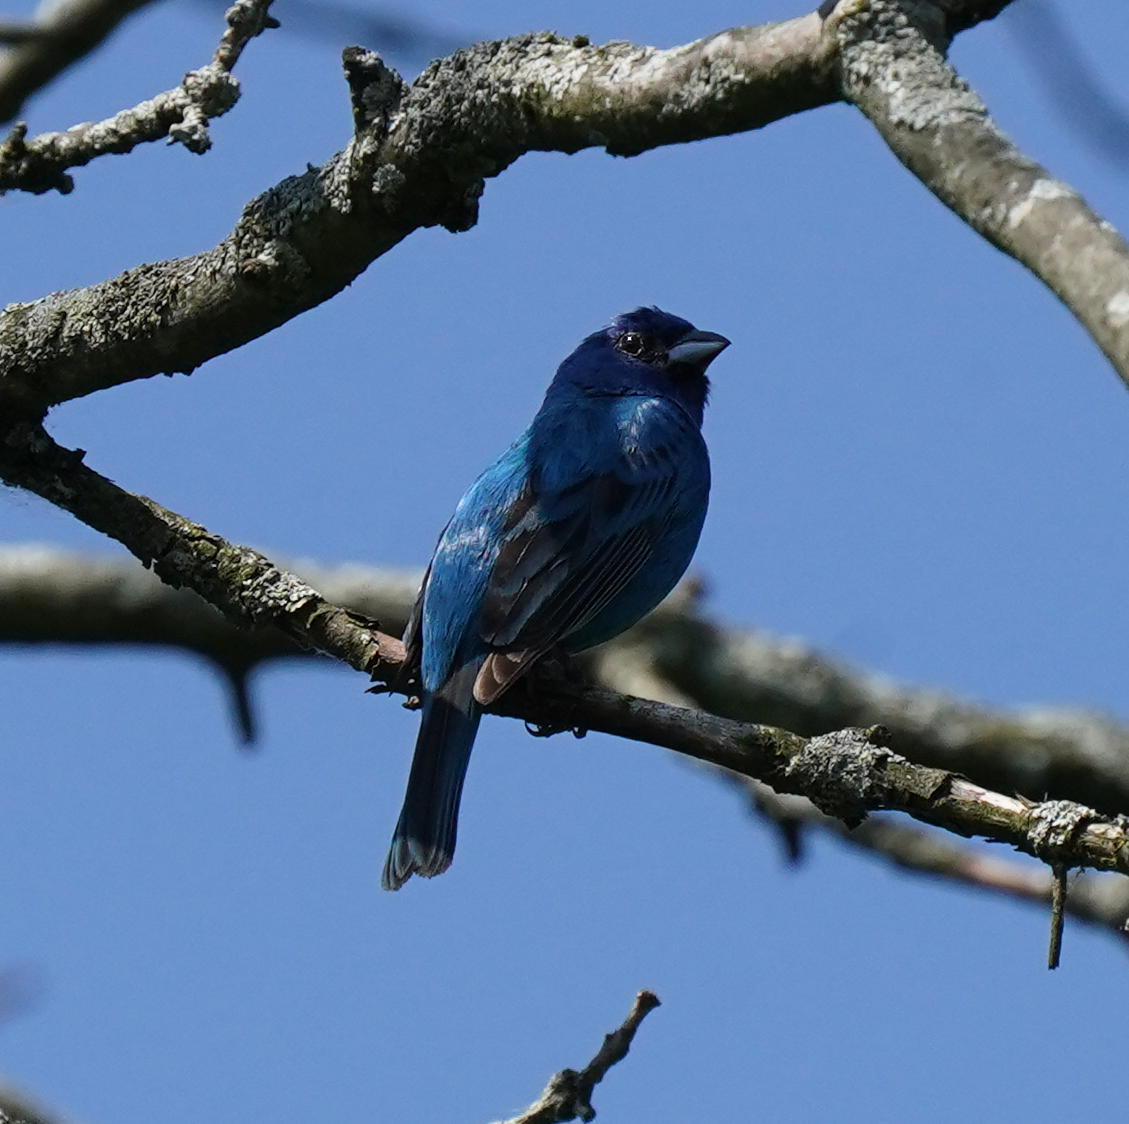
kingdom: Animalia
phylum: Chordata
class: Aves
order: Passeriformes
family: Cardinalidae
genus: Passerina
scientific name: Passerina cyanea
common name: Indigo bunting
